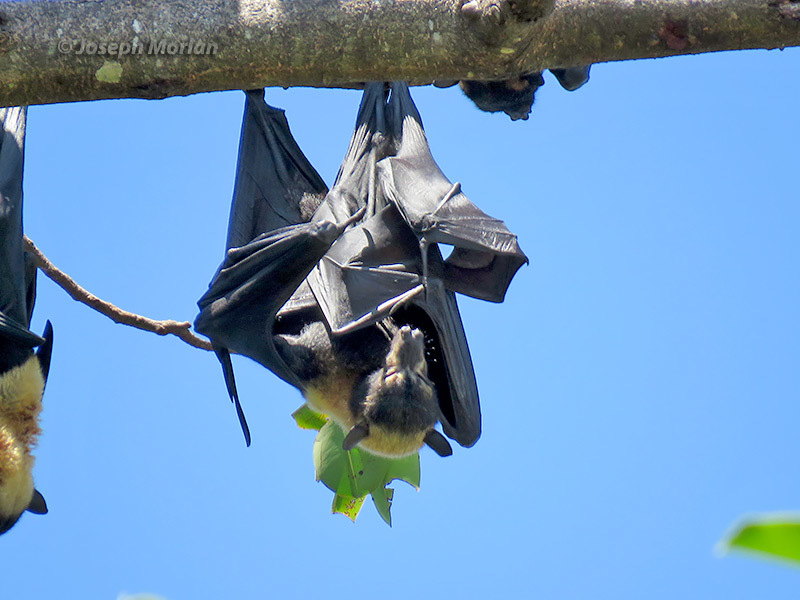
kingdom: Animalia
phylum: Chordata
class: Mammalia
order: Chiroptera
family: Pteropodidae
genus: Pteropus
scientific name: Pteropus conspicillatus
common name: Spectacled flying fox
